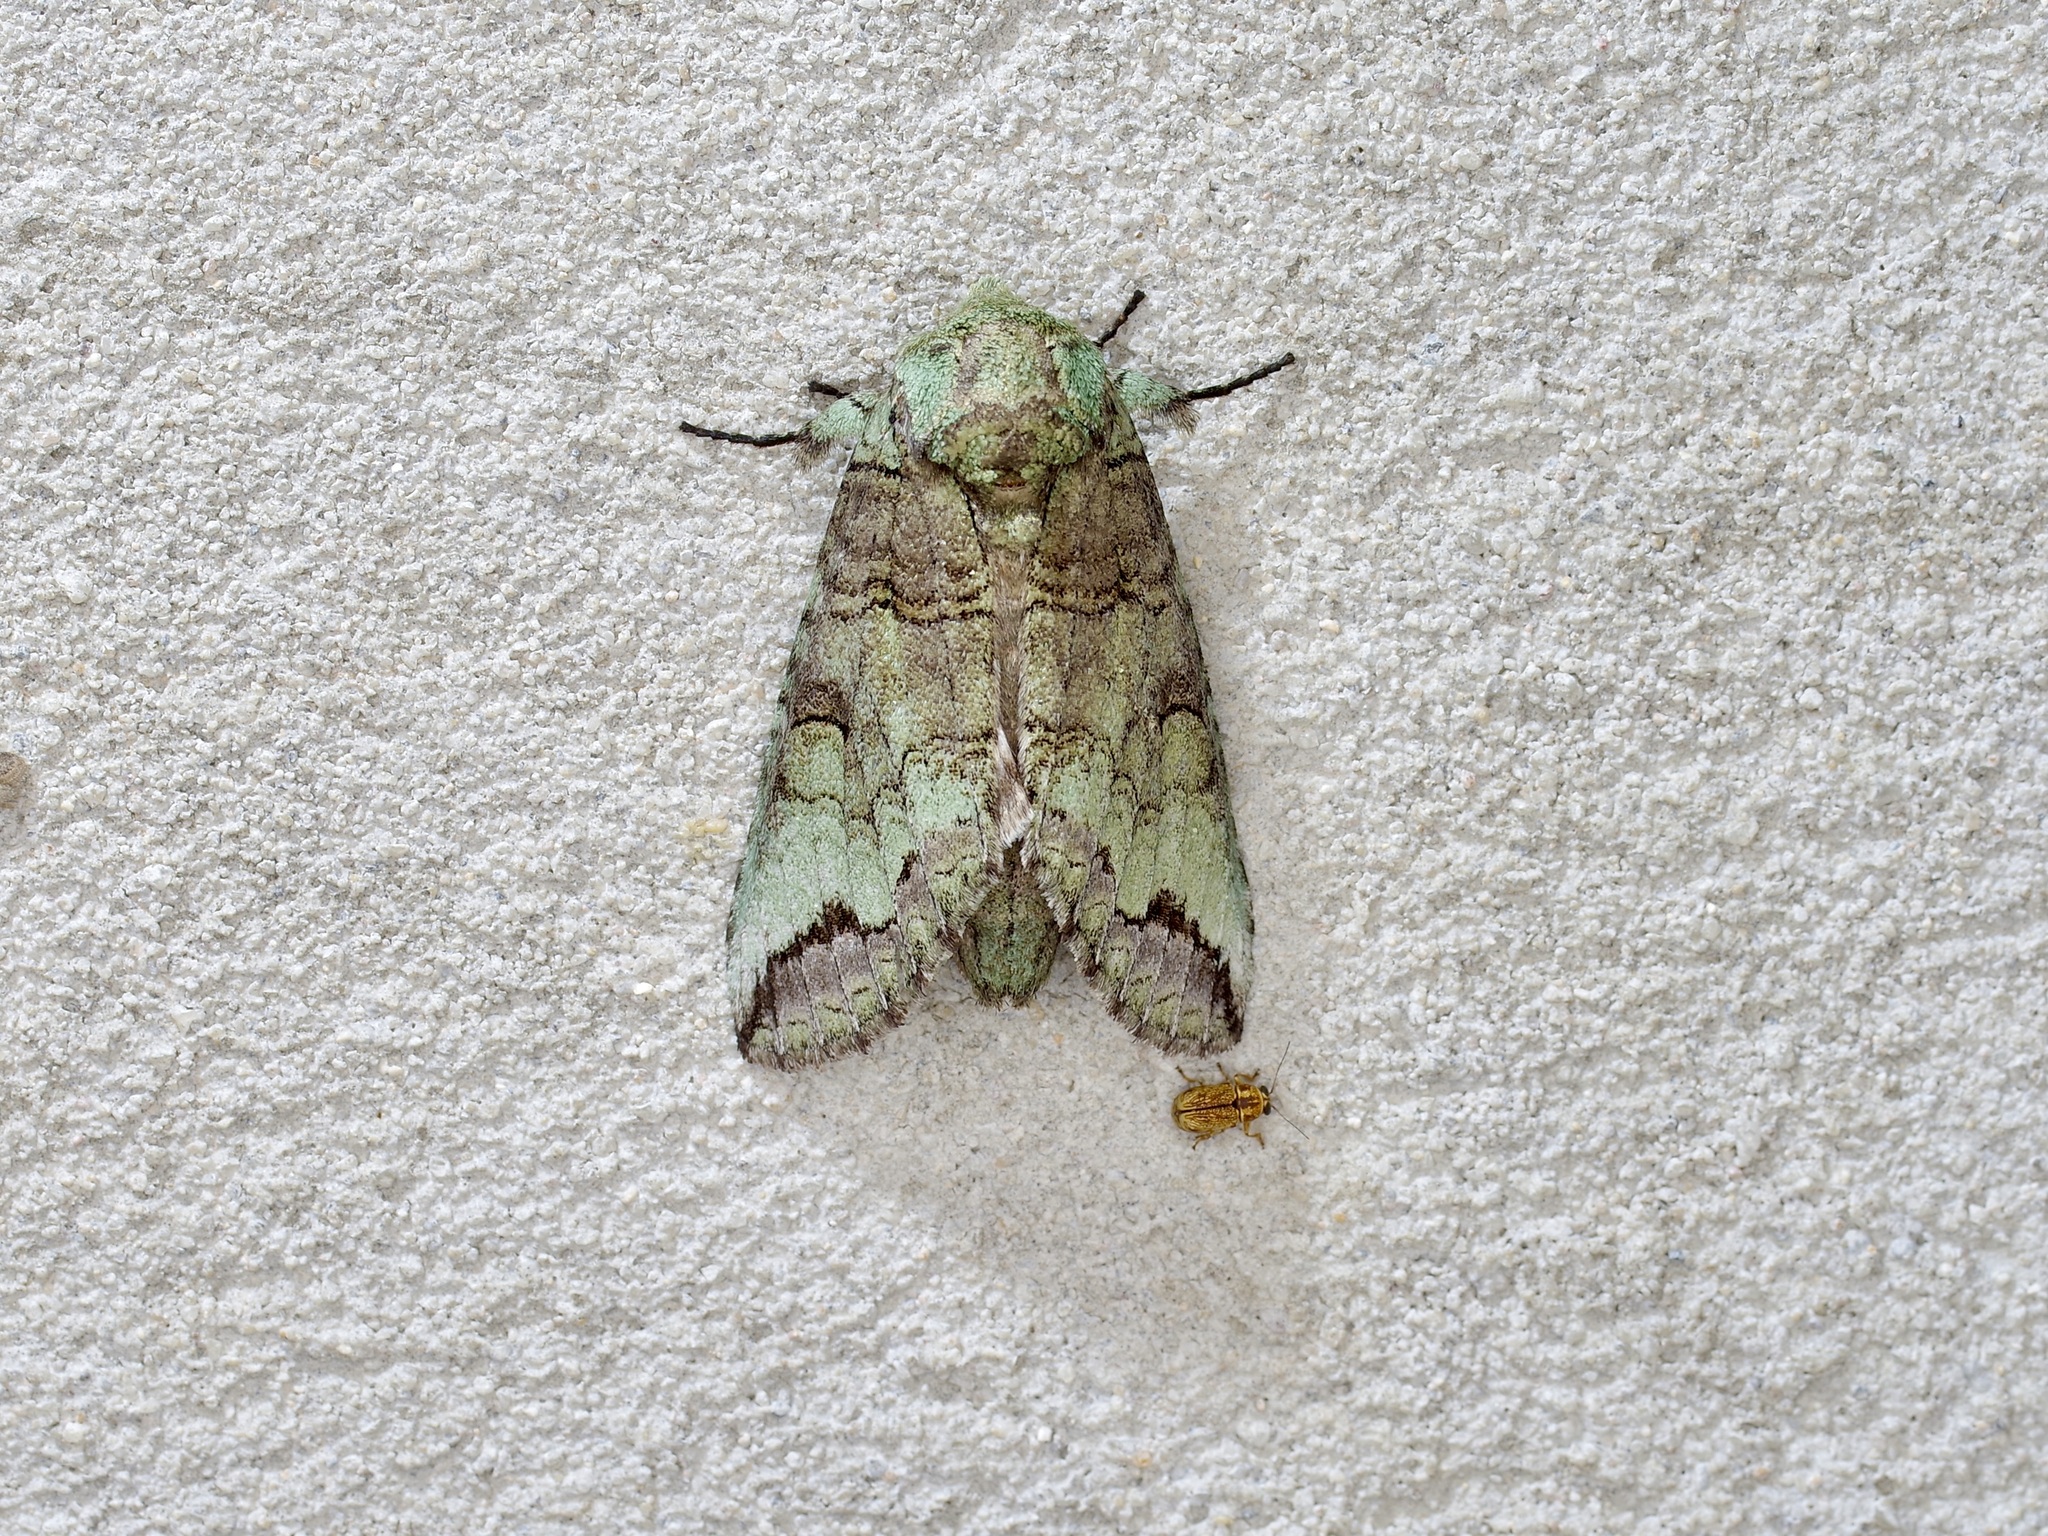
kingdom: Animalia
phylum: Arthropoda
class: Insecta
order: Lepidoptera
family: Notodontidae
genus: Heterocampa
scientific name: Heterocampa astartoides
